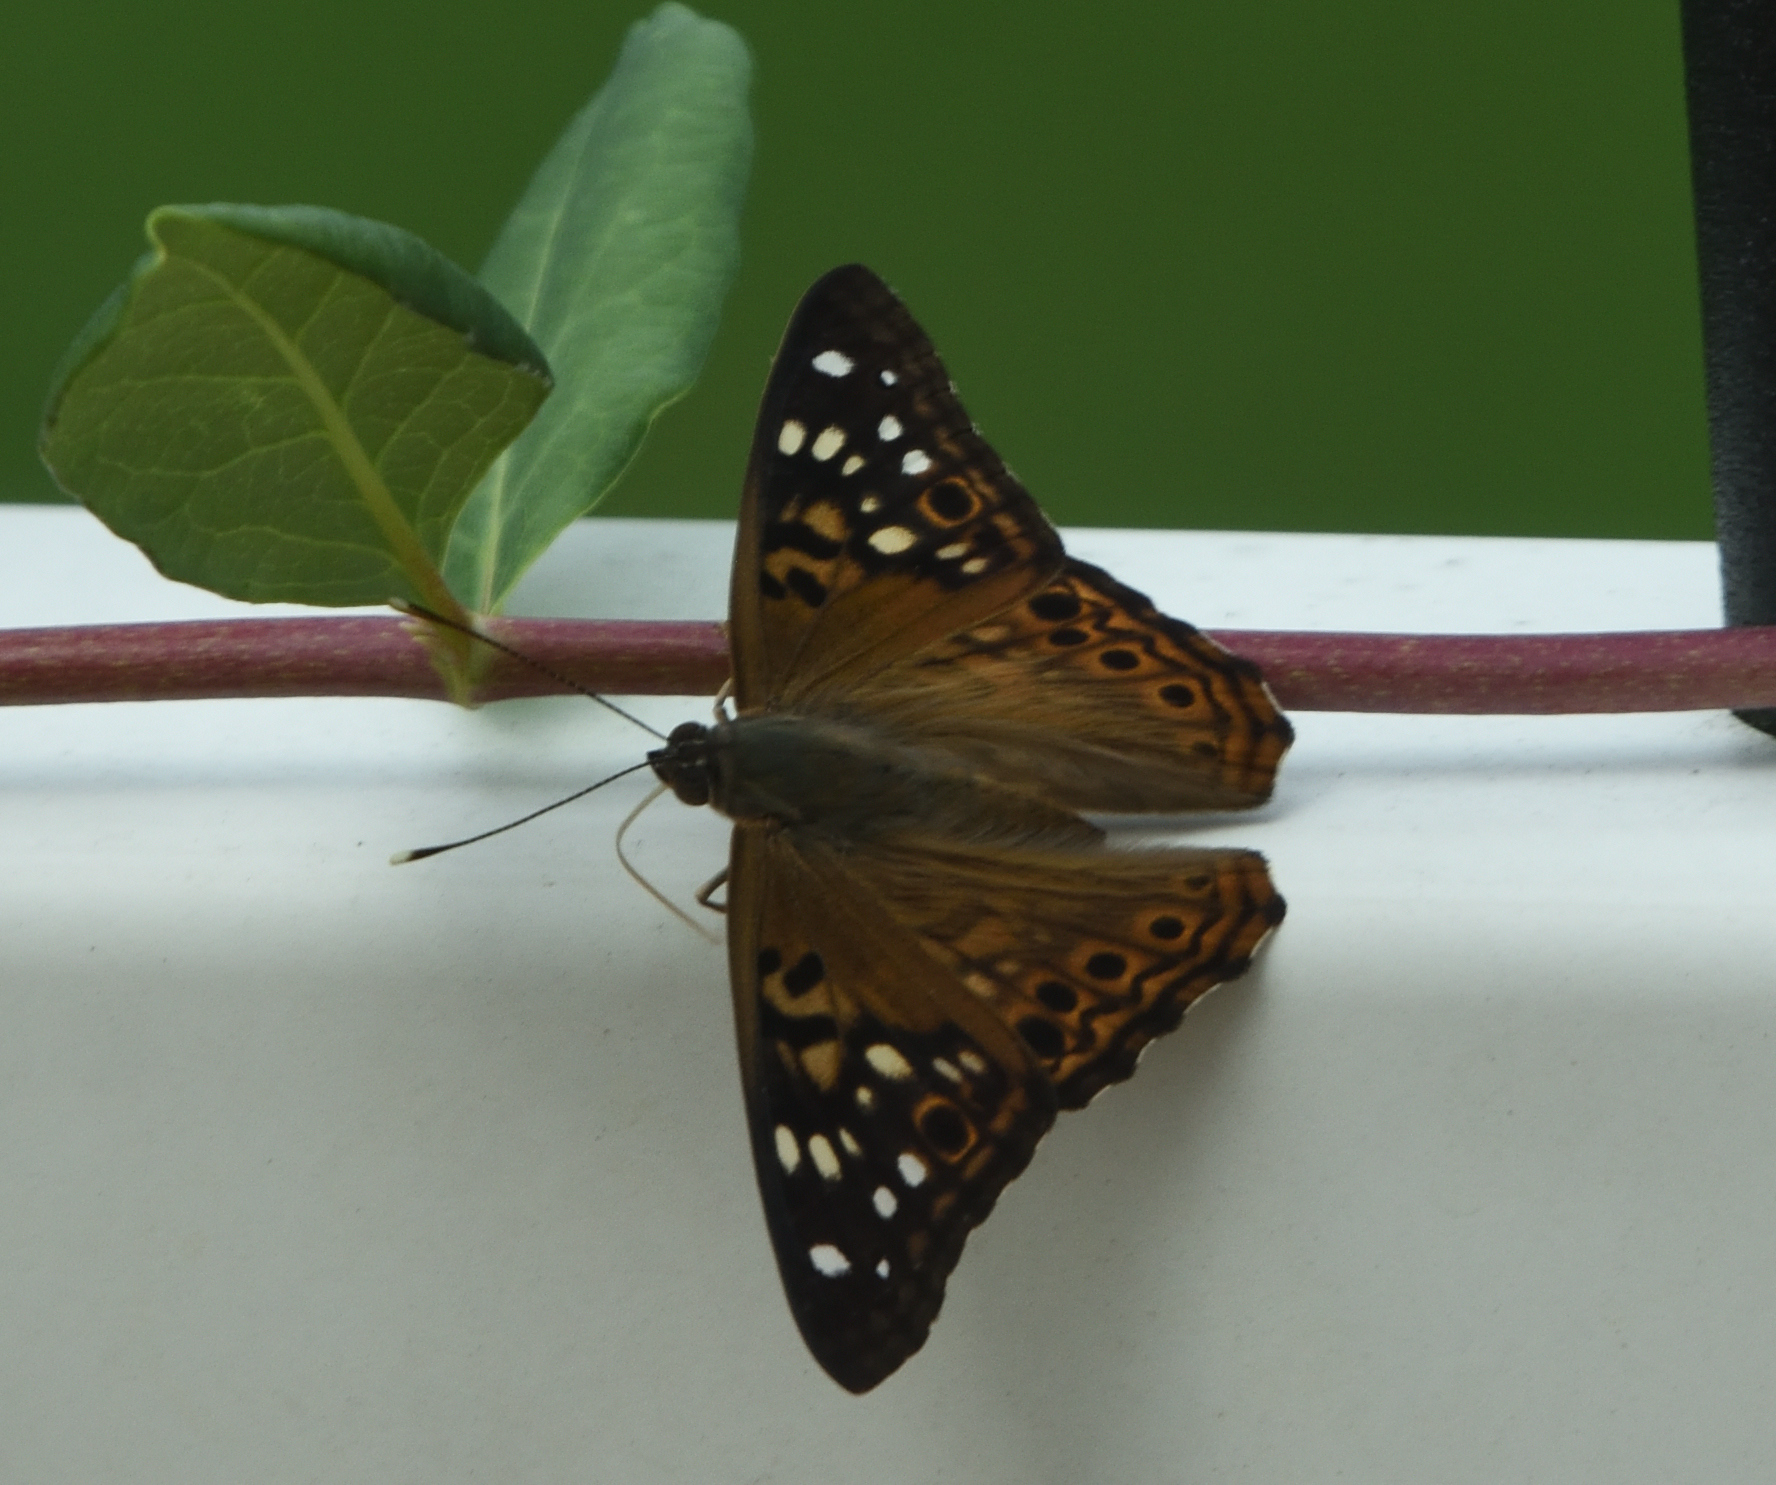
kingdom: Animalia
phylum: Arthropoda
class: Insecta
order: Lepidoptera
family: Nymphalidae
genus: Asterocampa
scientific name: Asterocampa celtis
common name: Hackberry emperor
